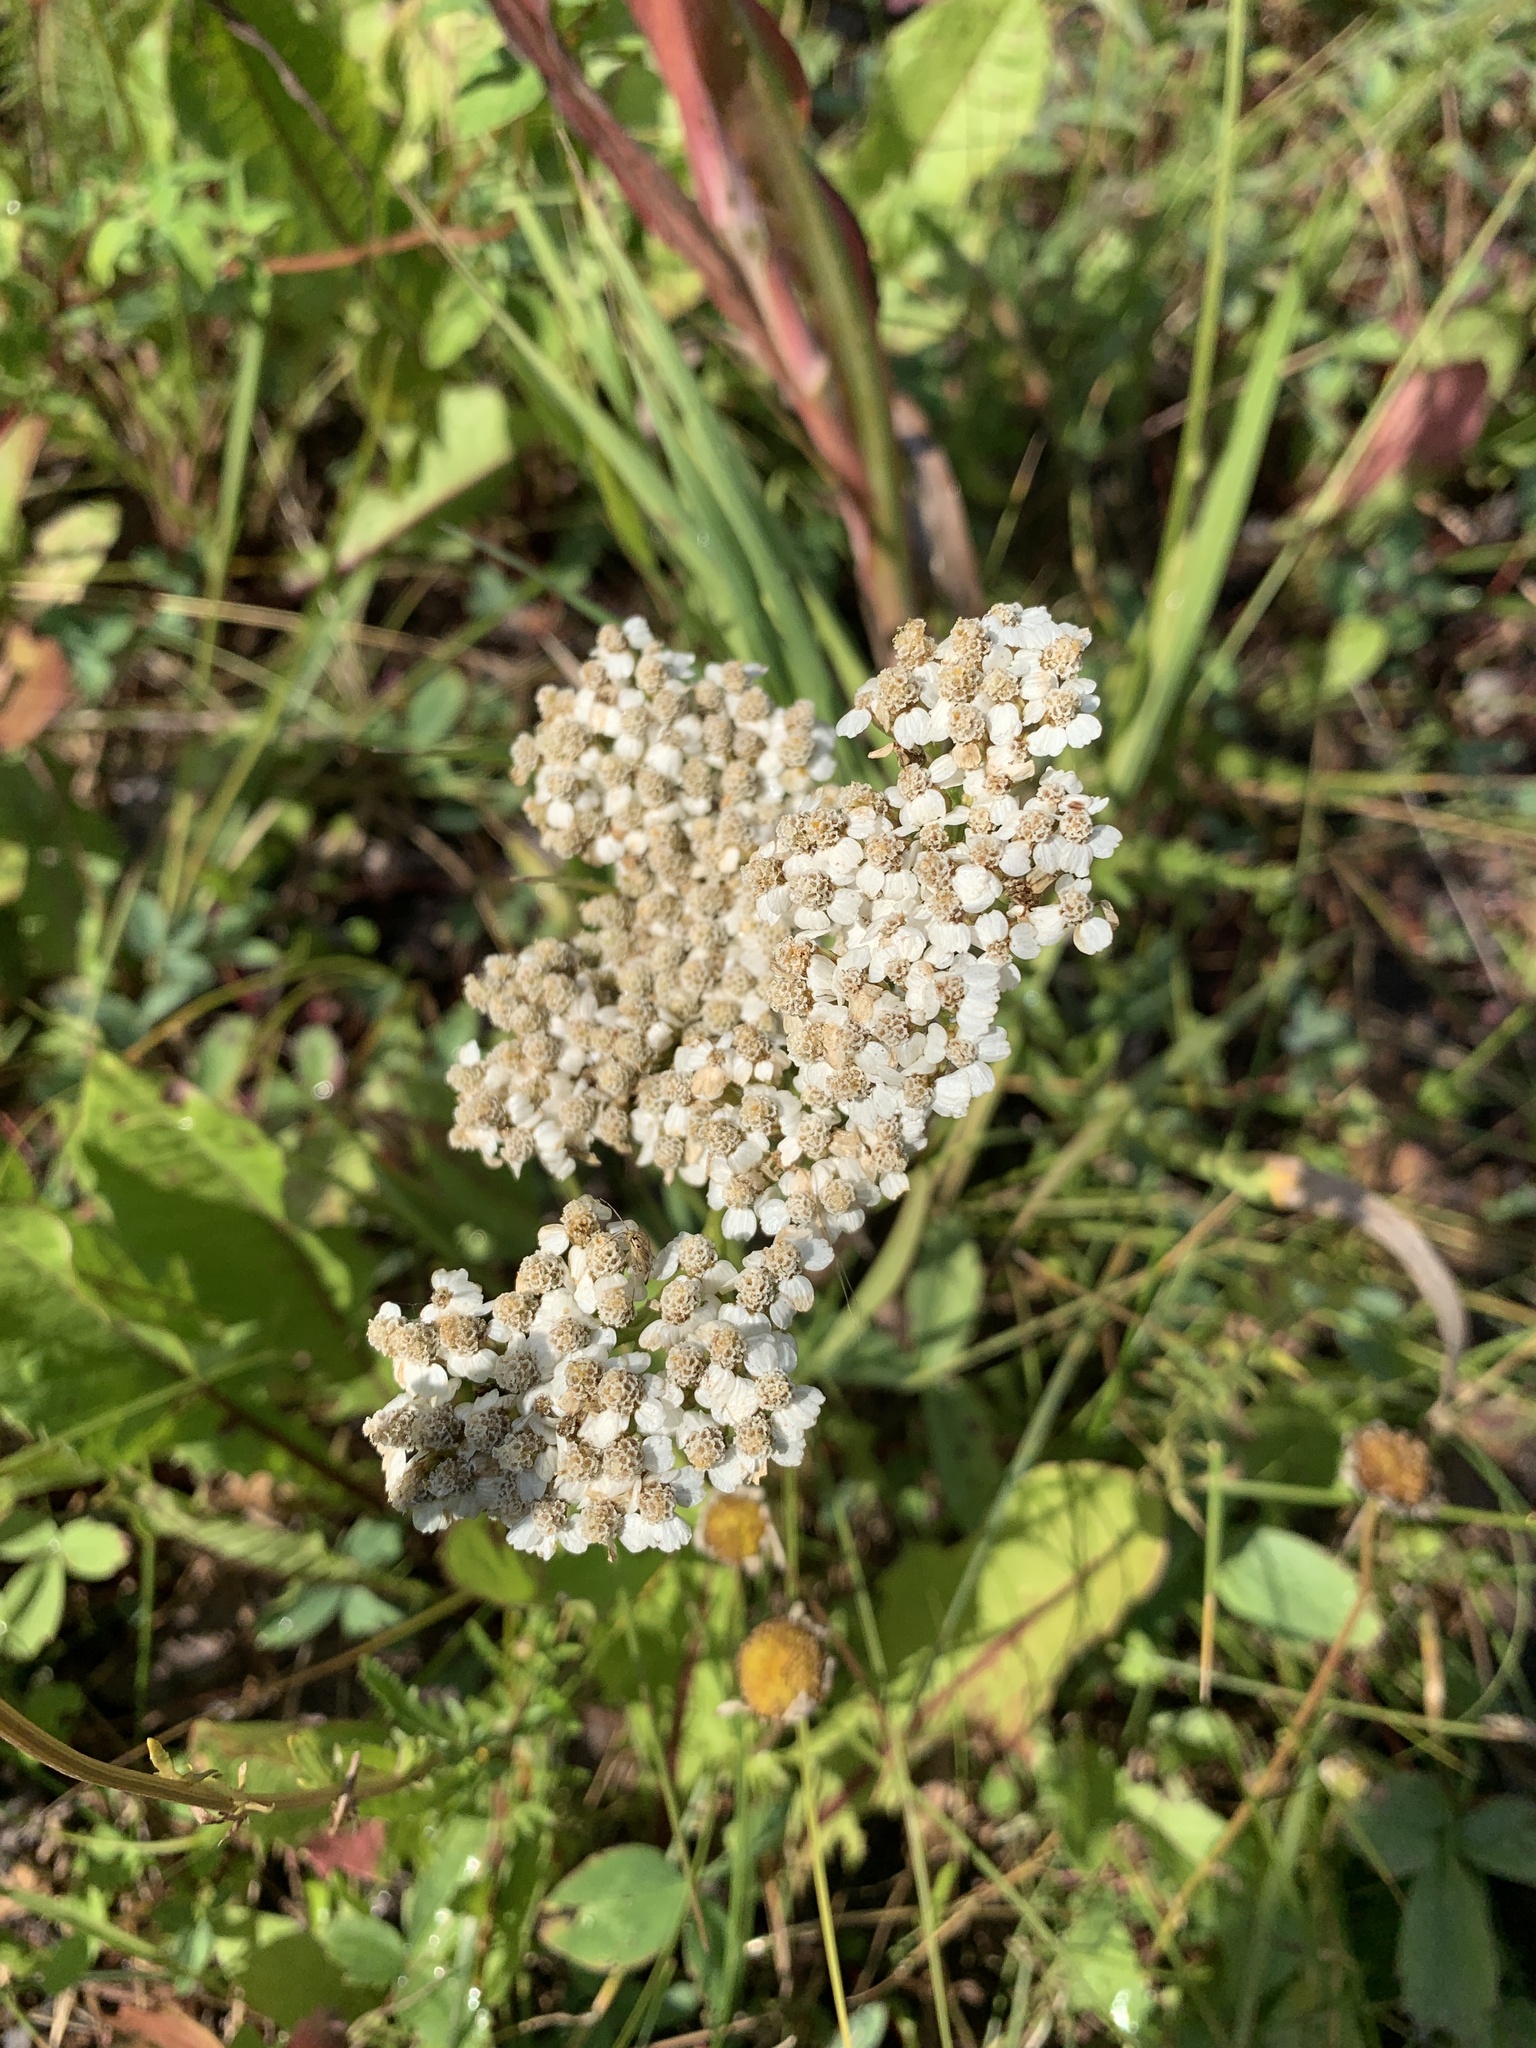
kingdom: Plantae
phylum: Tracheophyta
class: Magnoliopsida
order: Asterales
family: Asteraceae
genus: Achillea
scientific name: Achillea millefolium
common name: Yarrow
